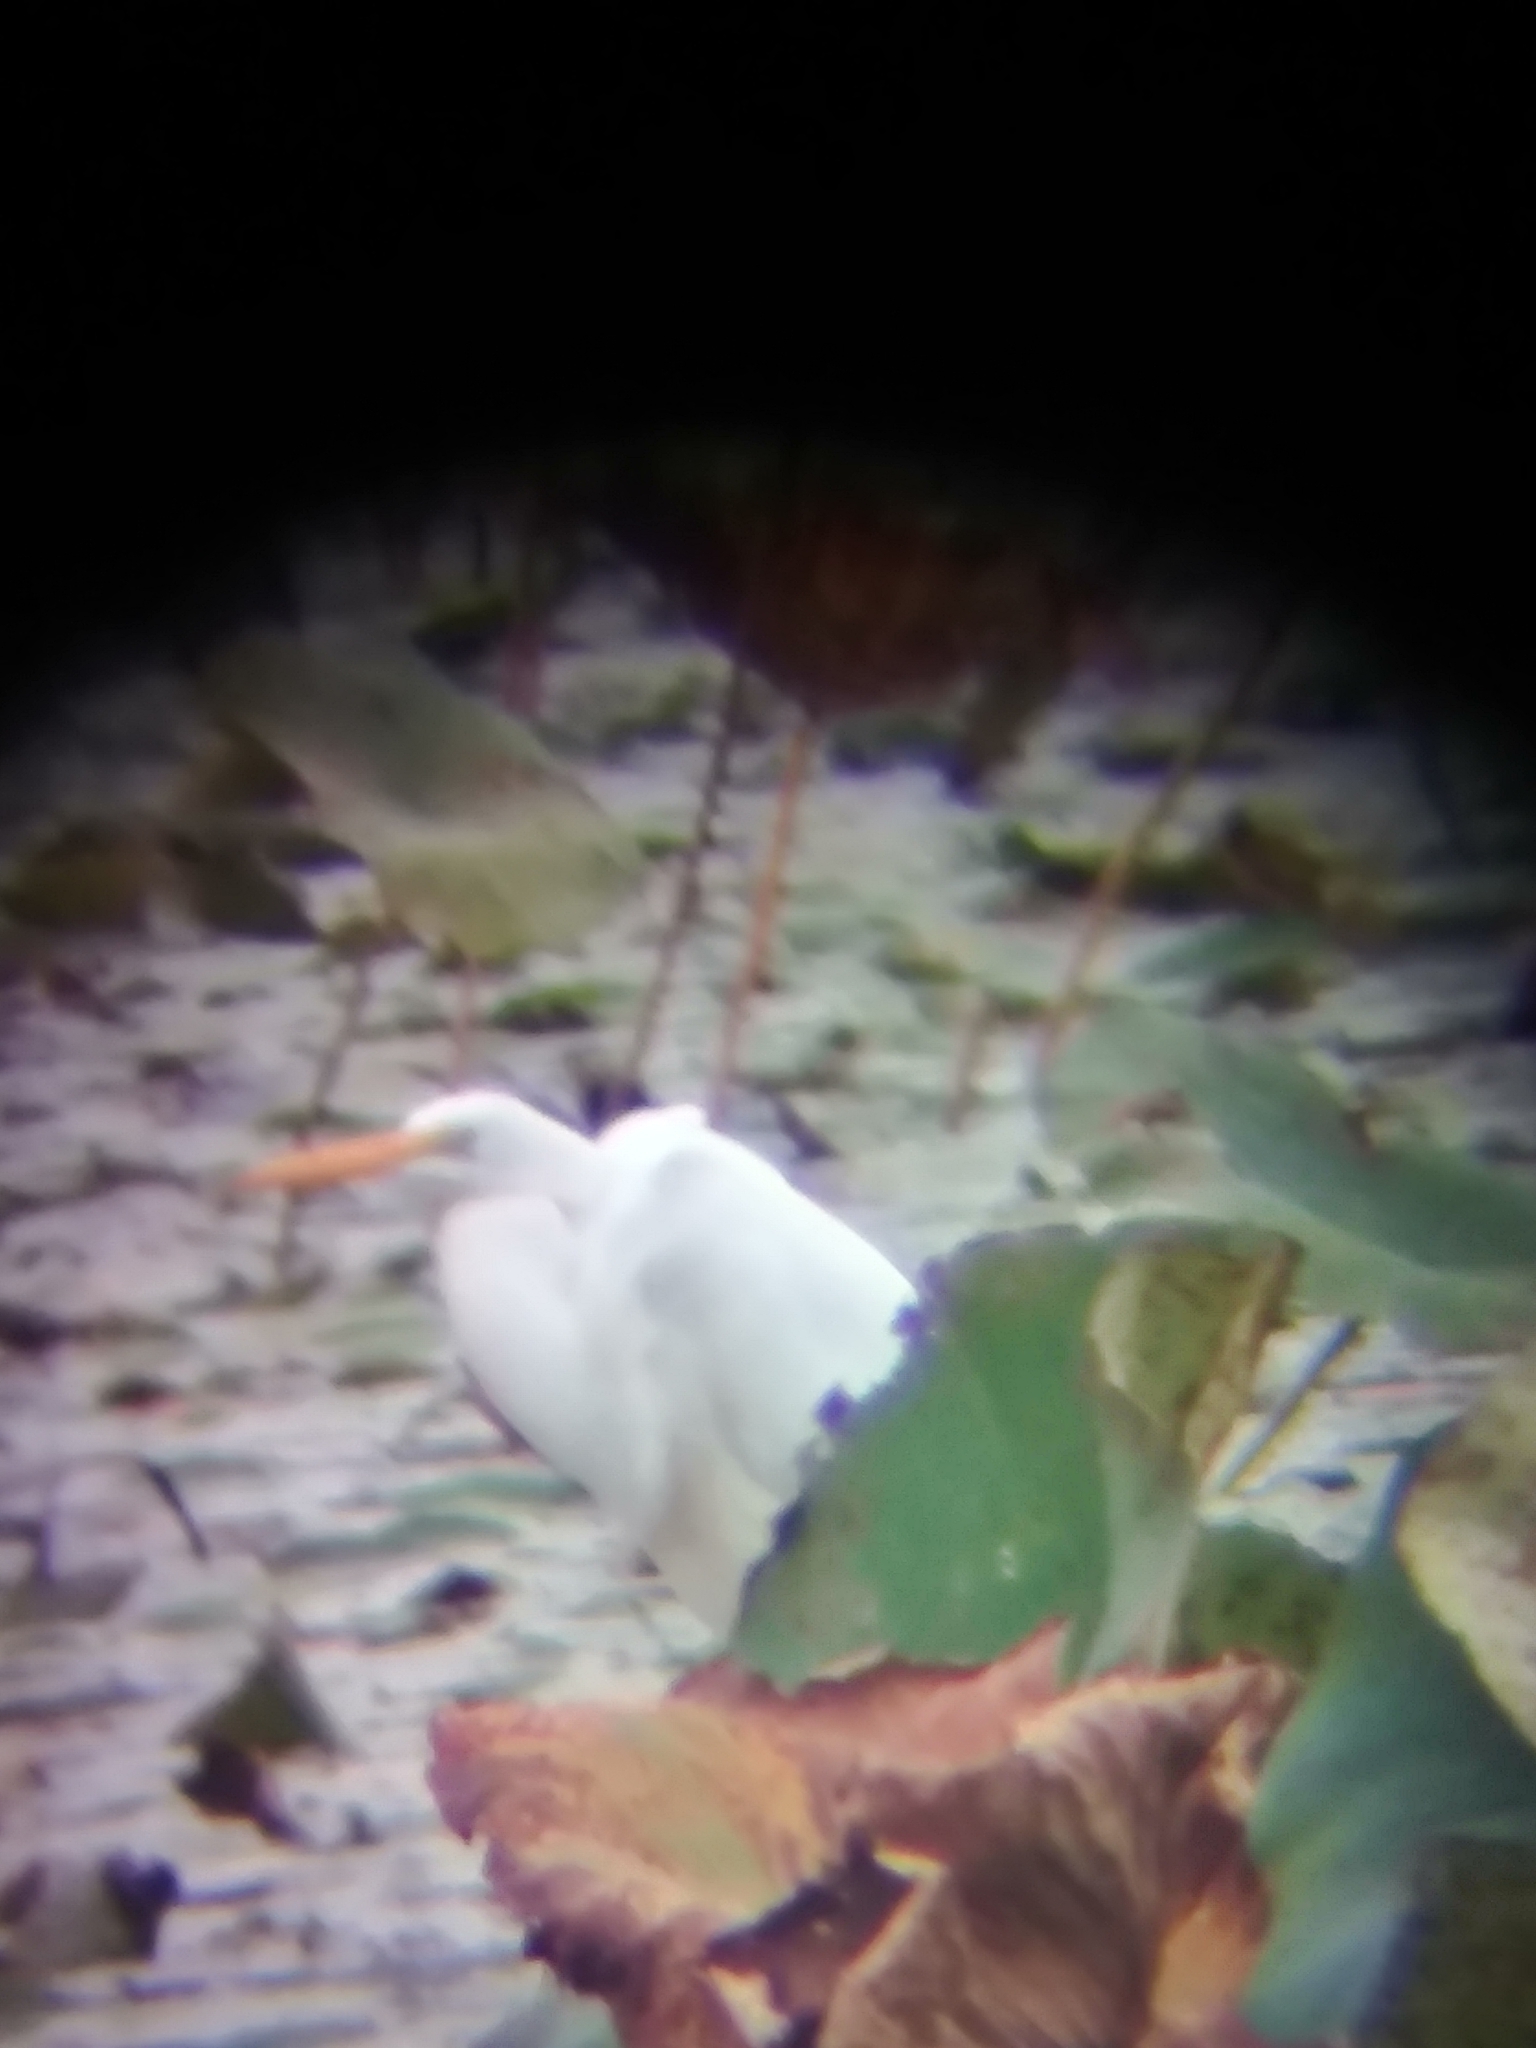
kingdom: Animalia
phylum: Chordata
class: Aves
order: Pelecaniformes
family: Ardeidae
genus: Ardea
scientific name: Ardea alba
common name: Great egret
